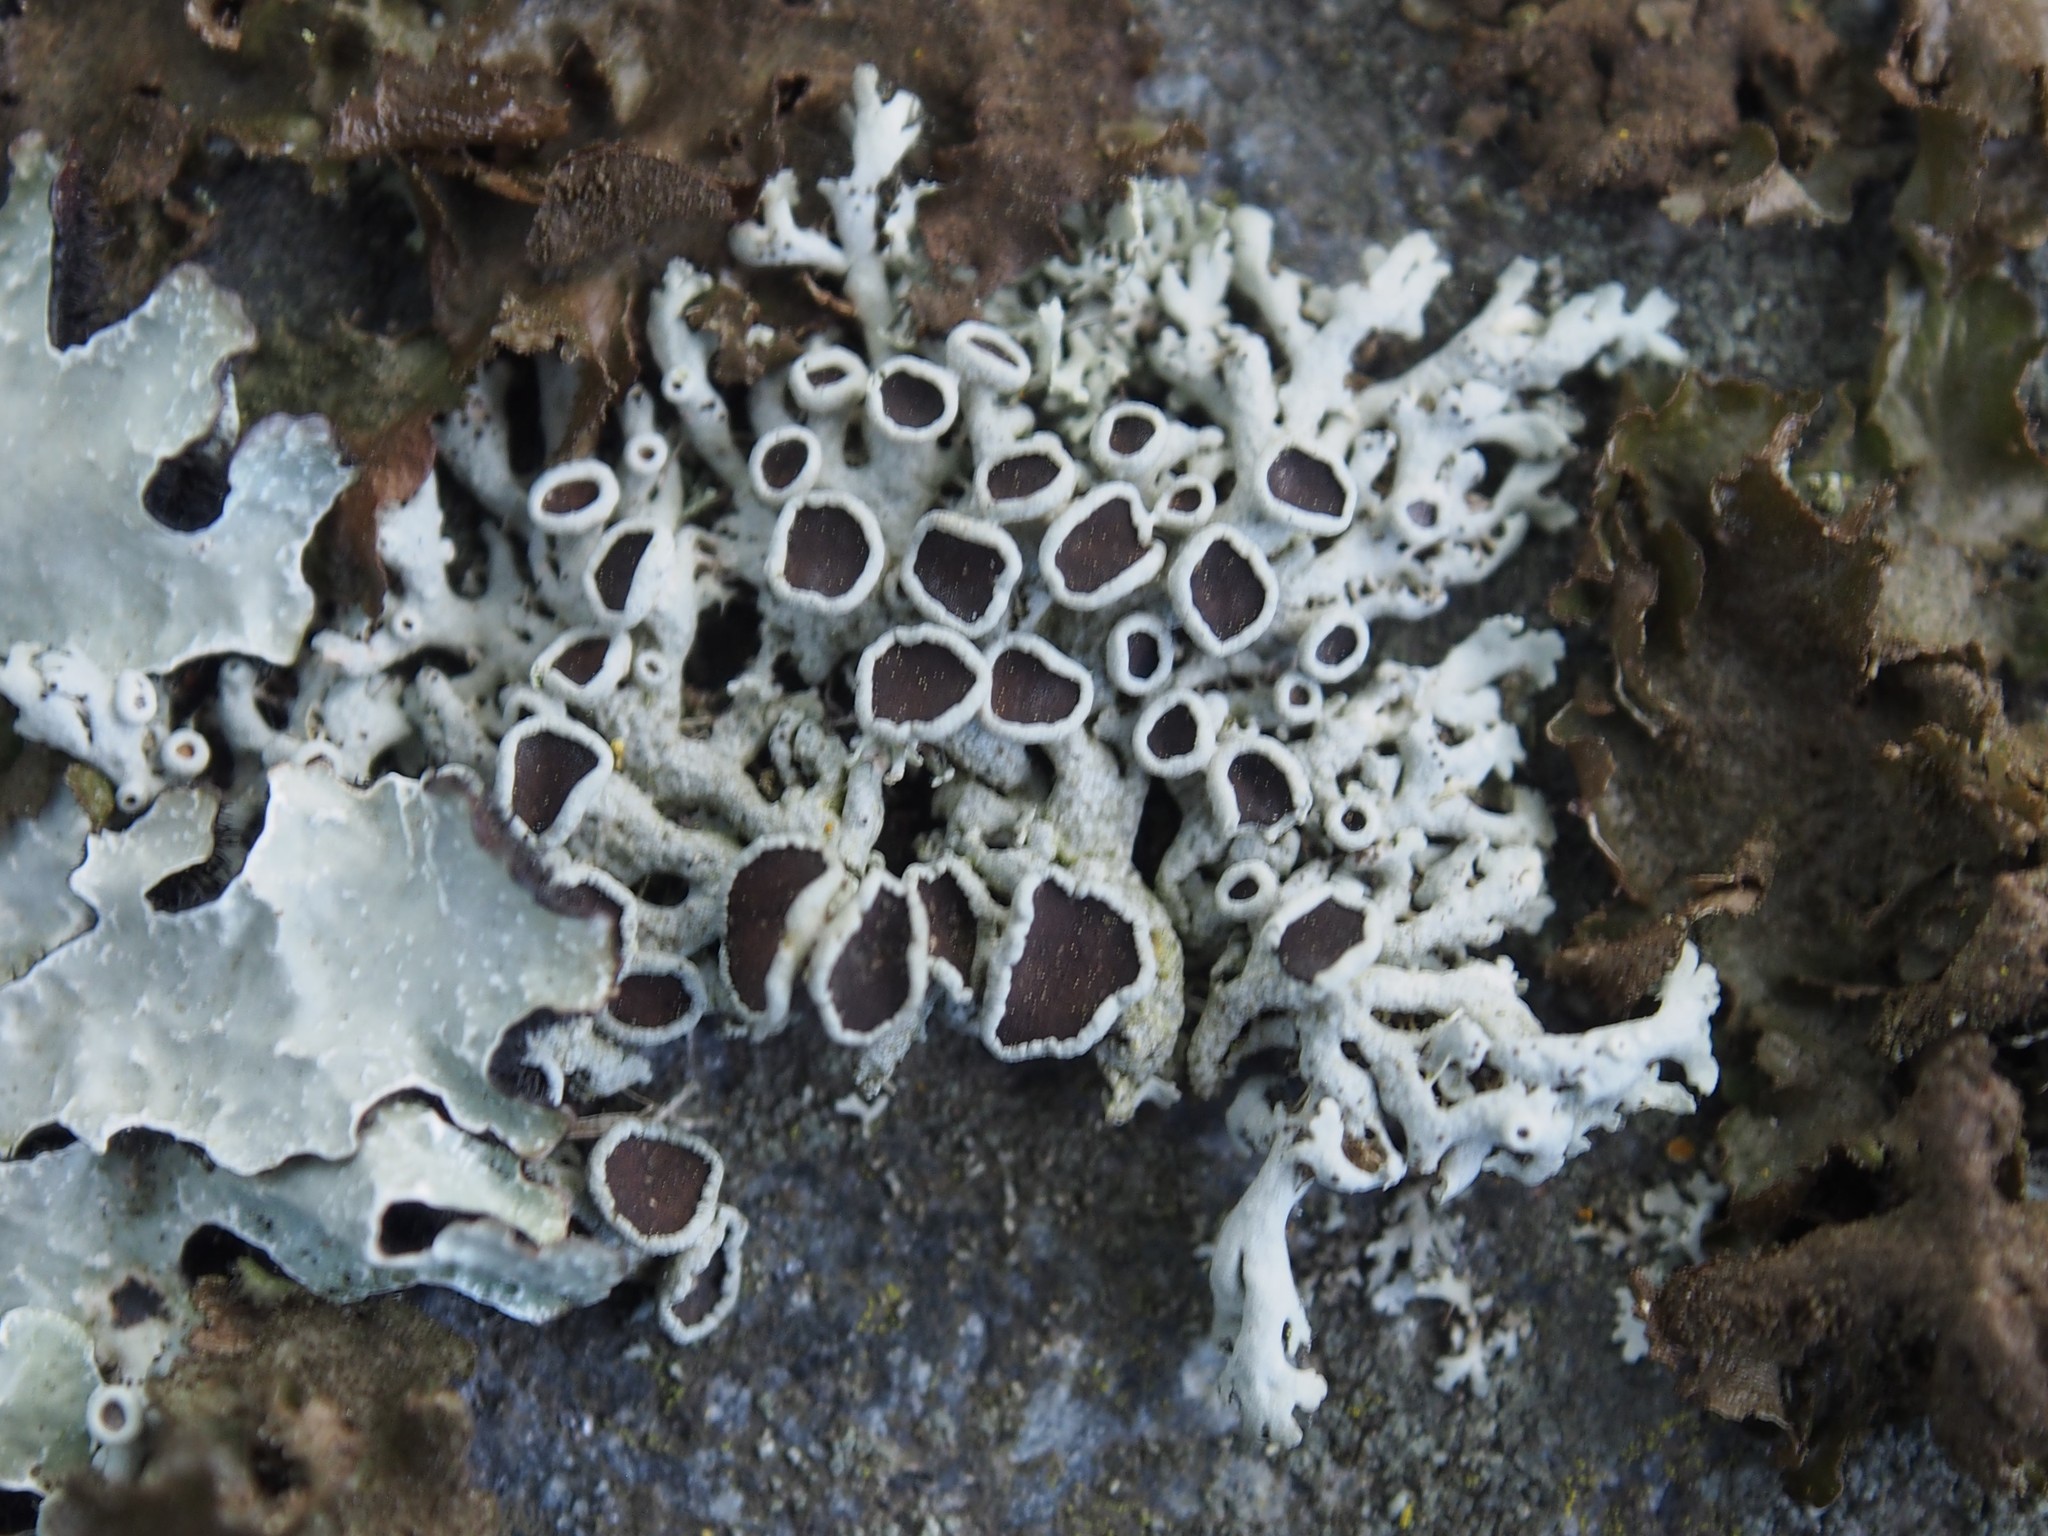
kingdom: Fungi
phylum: Ascomycota
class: Lecanoromycetes
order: Caliciales
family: Physciaceae
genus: Physcia
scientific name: Physcia stellaris
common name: Star rosette lichen
